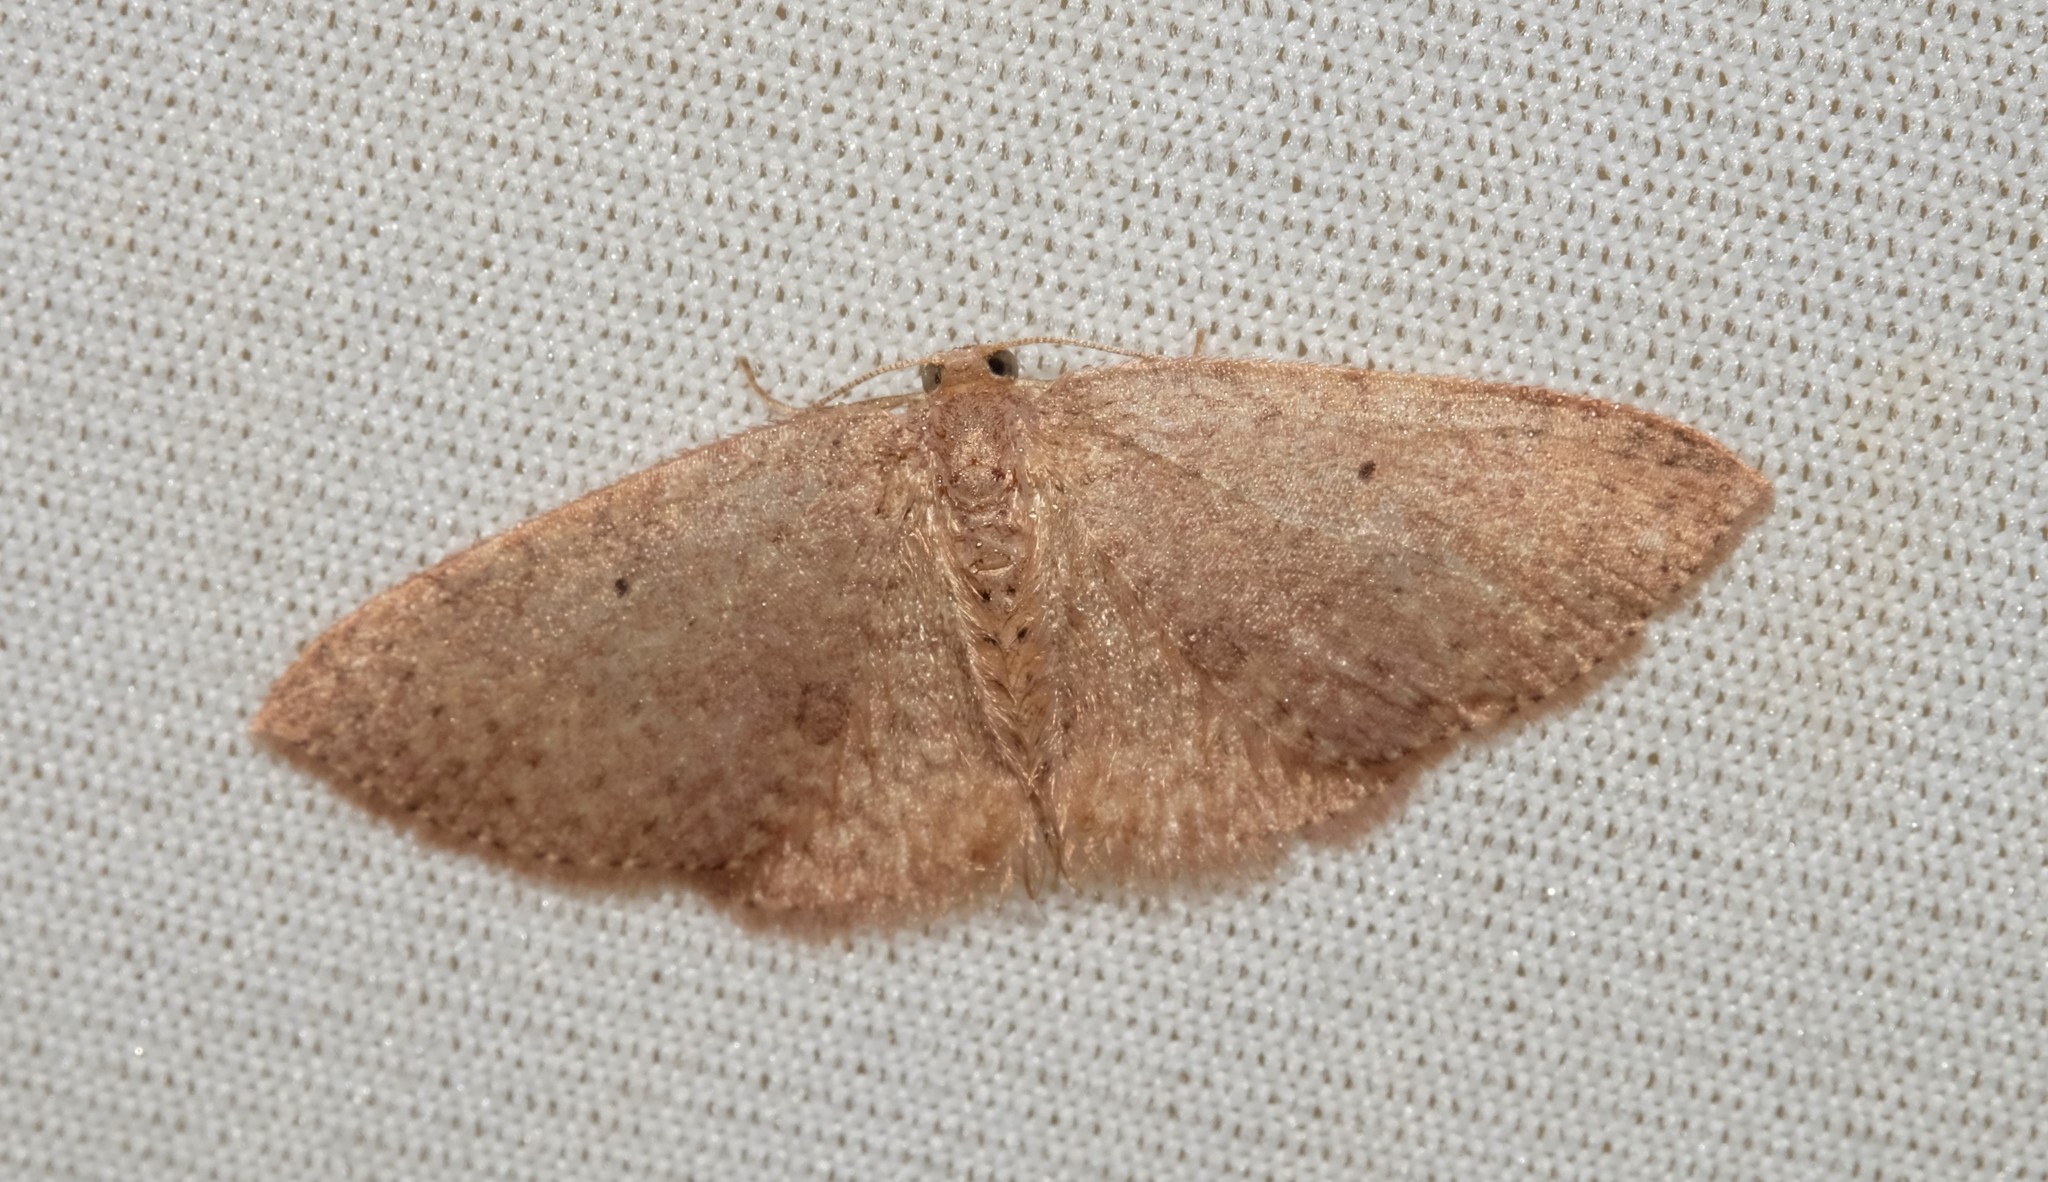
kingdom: Animalia
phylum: Arthropoda
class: Insecta
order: Lepidoptera
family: Geometridae
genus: Poecilasthena
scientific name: Poecilasthena anthodes
